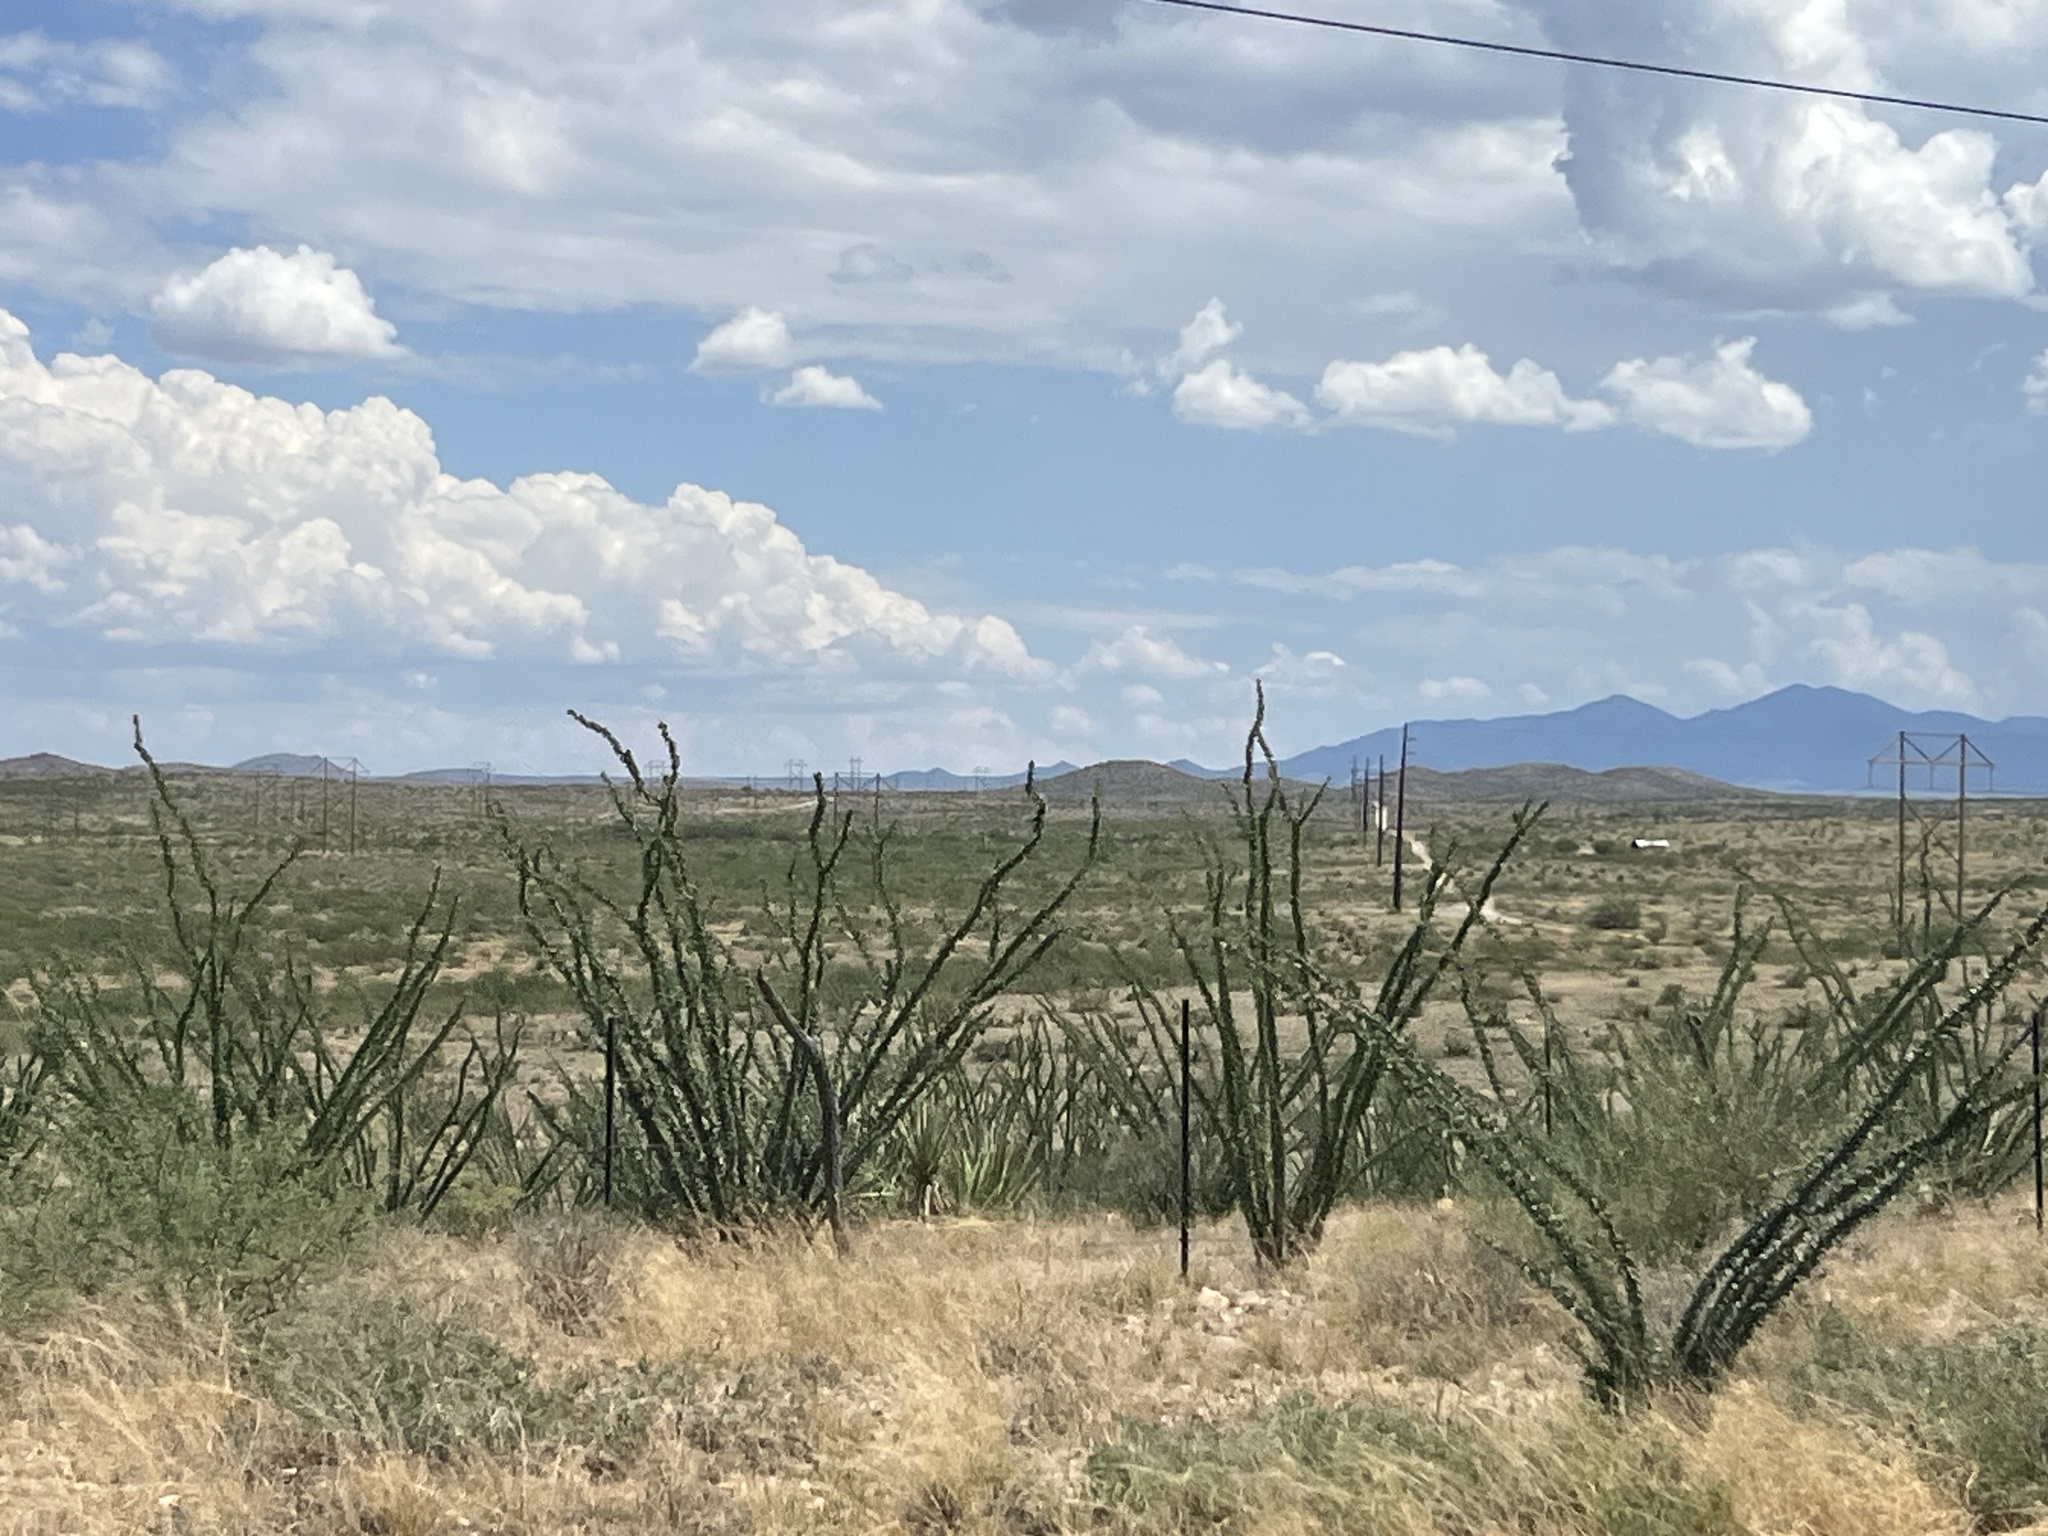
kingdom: Plantae
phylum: Tracheophyta
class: Magnoliopsida
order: Ericales
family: Fouquieriaceae
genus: Fouquieria
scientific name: Fouquieria splendens
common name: Vine-cactus
